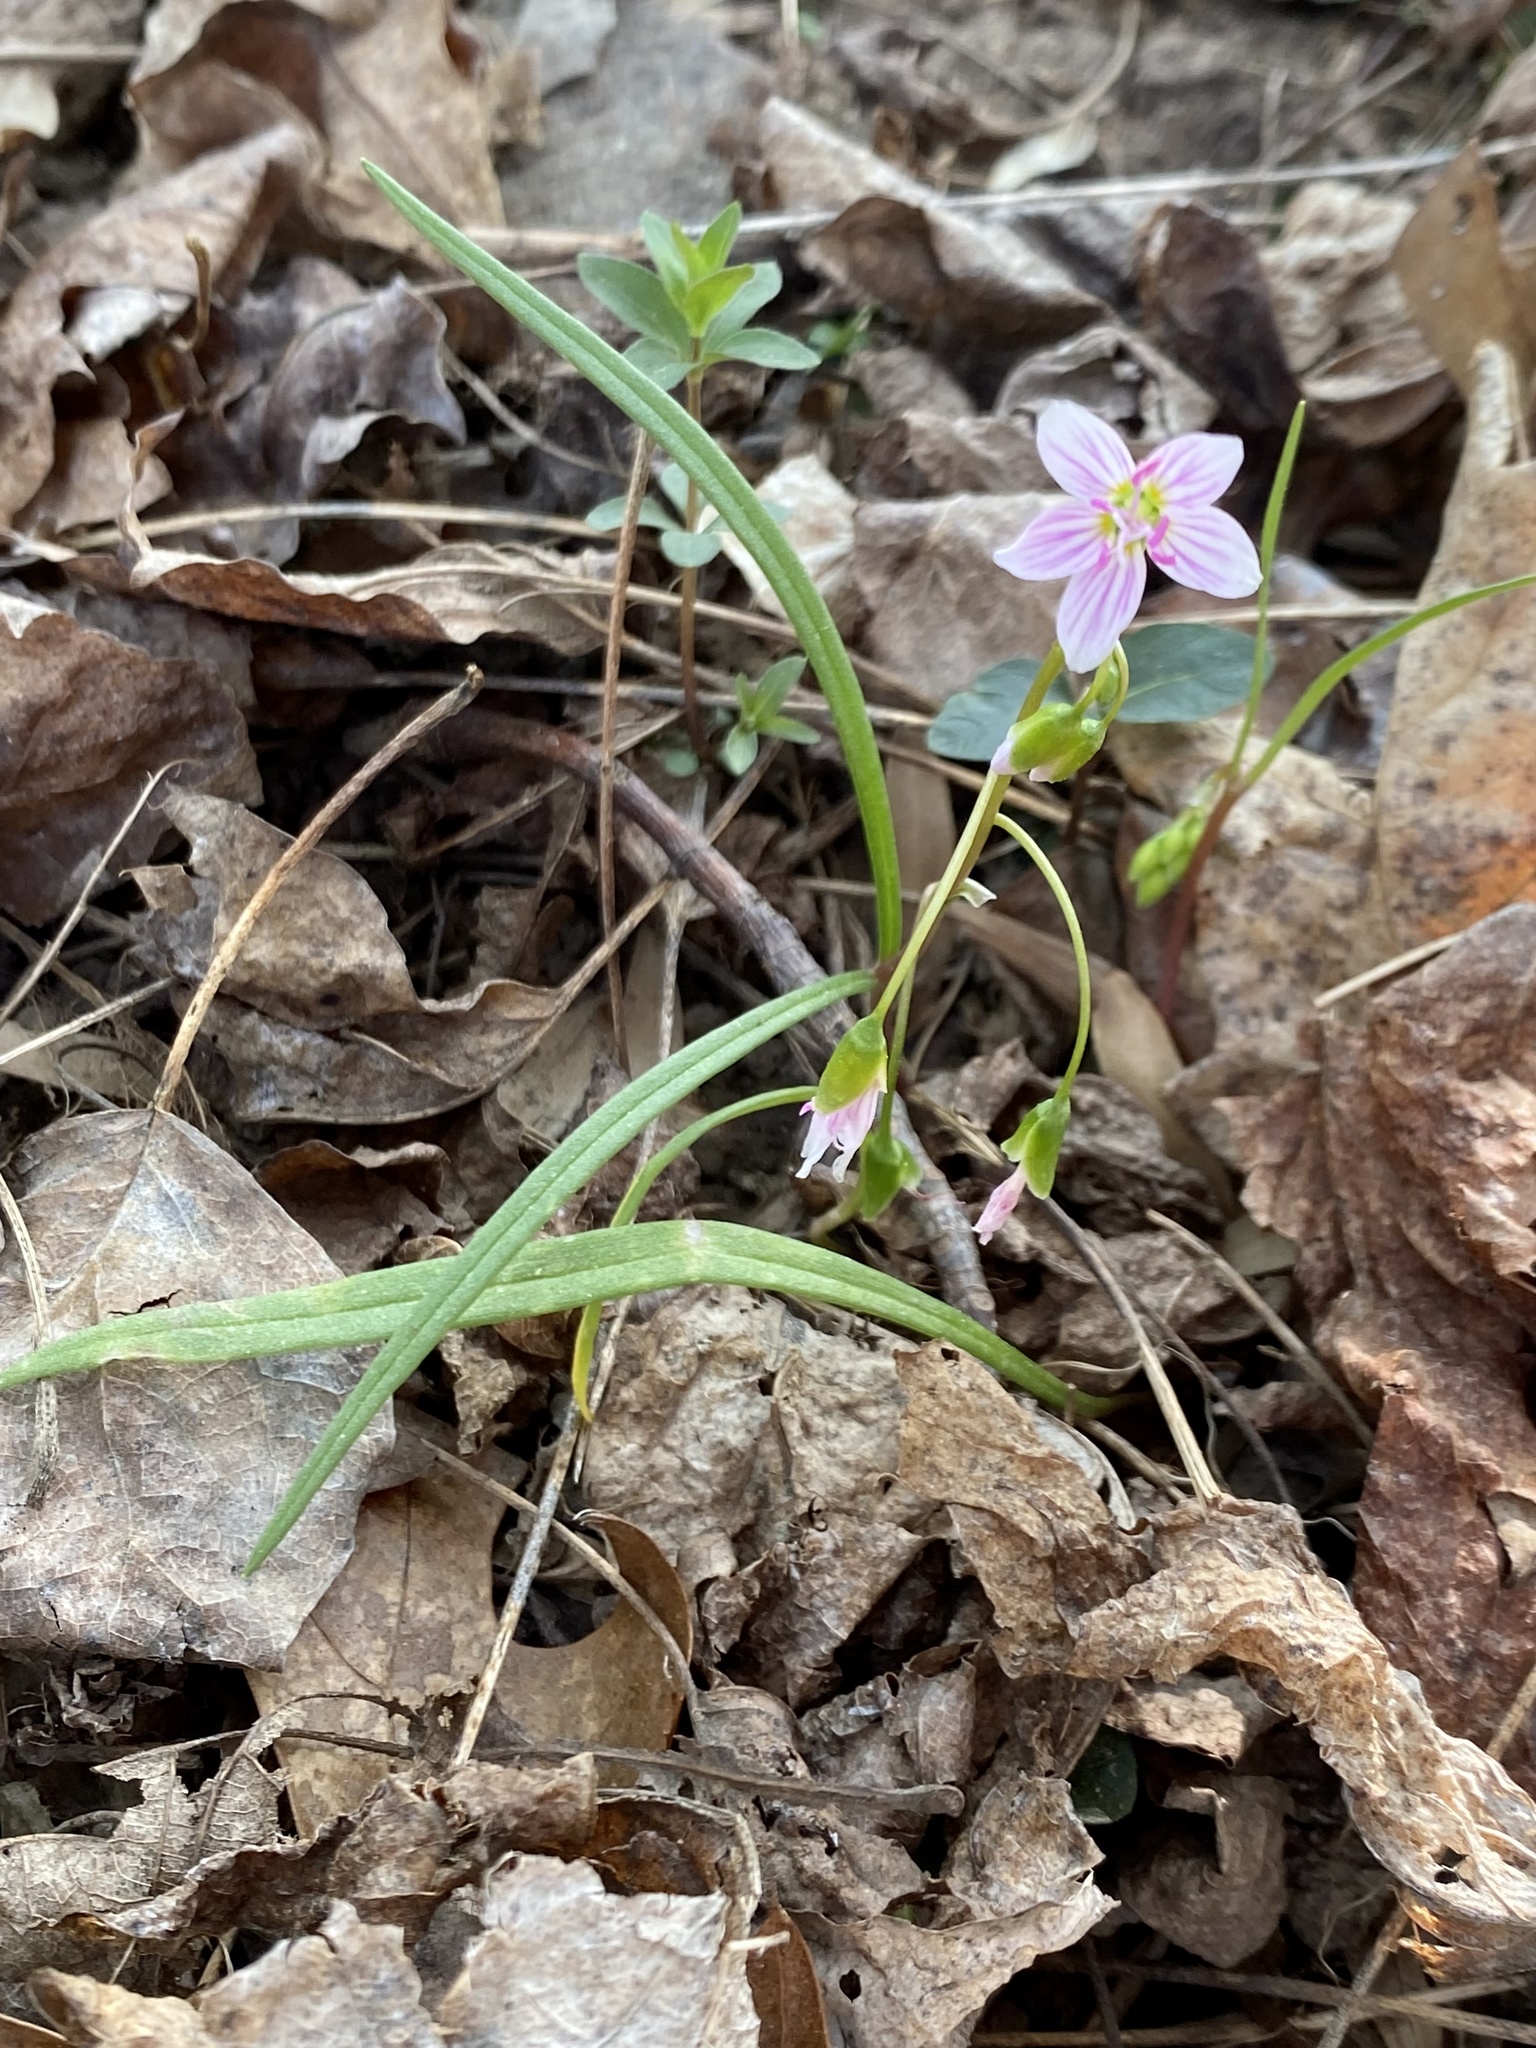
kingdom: Plantae
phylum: Tracheophyta
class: Magnoliopsida
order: Caryophyllales
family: Montiaceae
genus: Claytonia
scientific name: Claytonia virginica
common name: Virginia springbeauty
